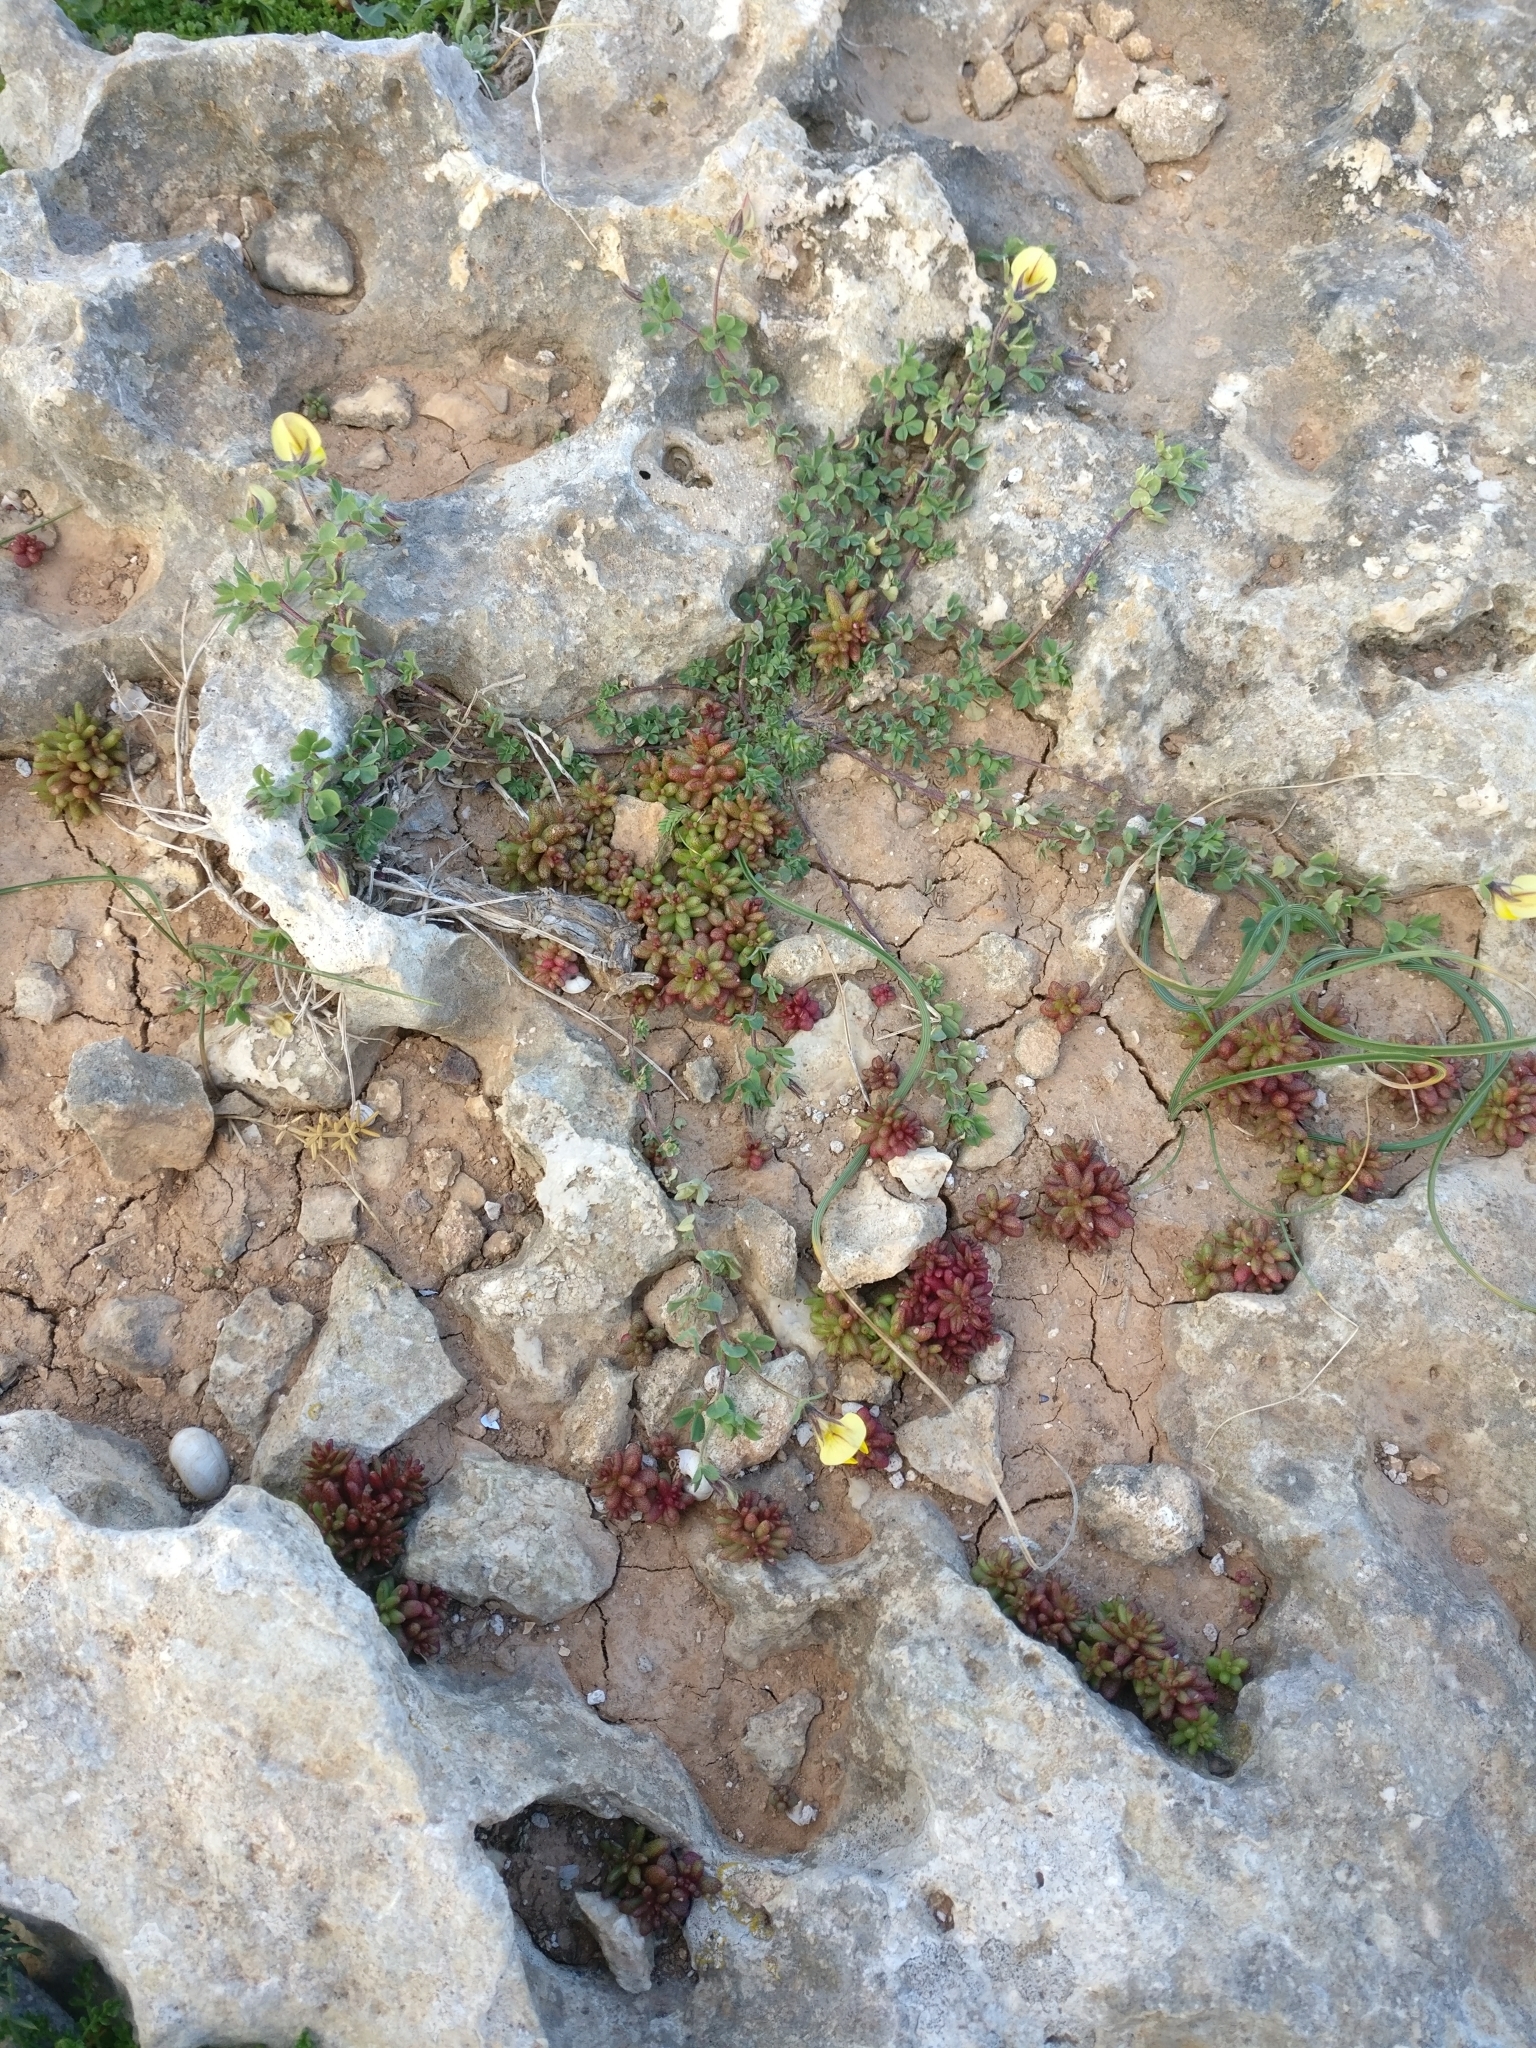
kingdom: Plantae
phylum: Tracheophyta
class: Magnoliopsida
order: Fabales
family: Fabaceae
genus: Lotus
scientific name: Lotus edulis
